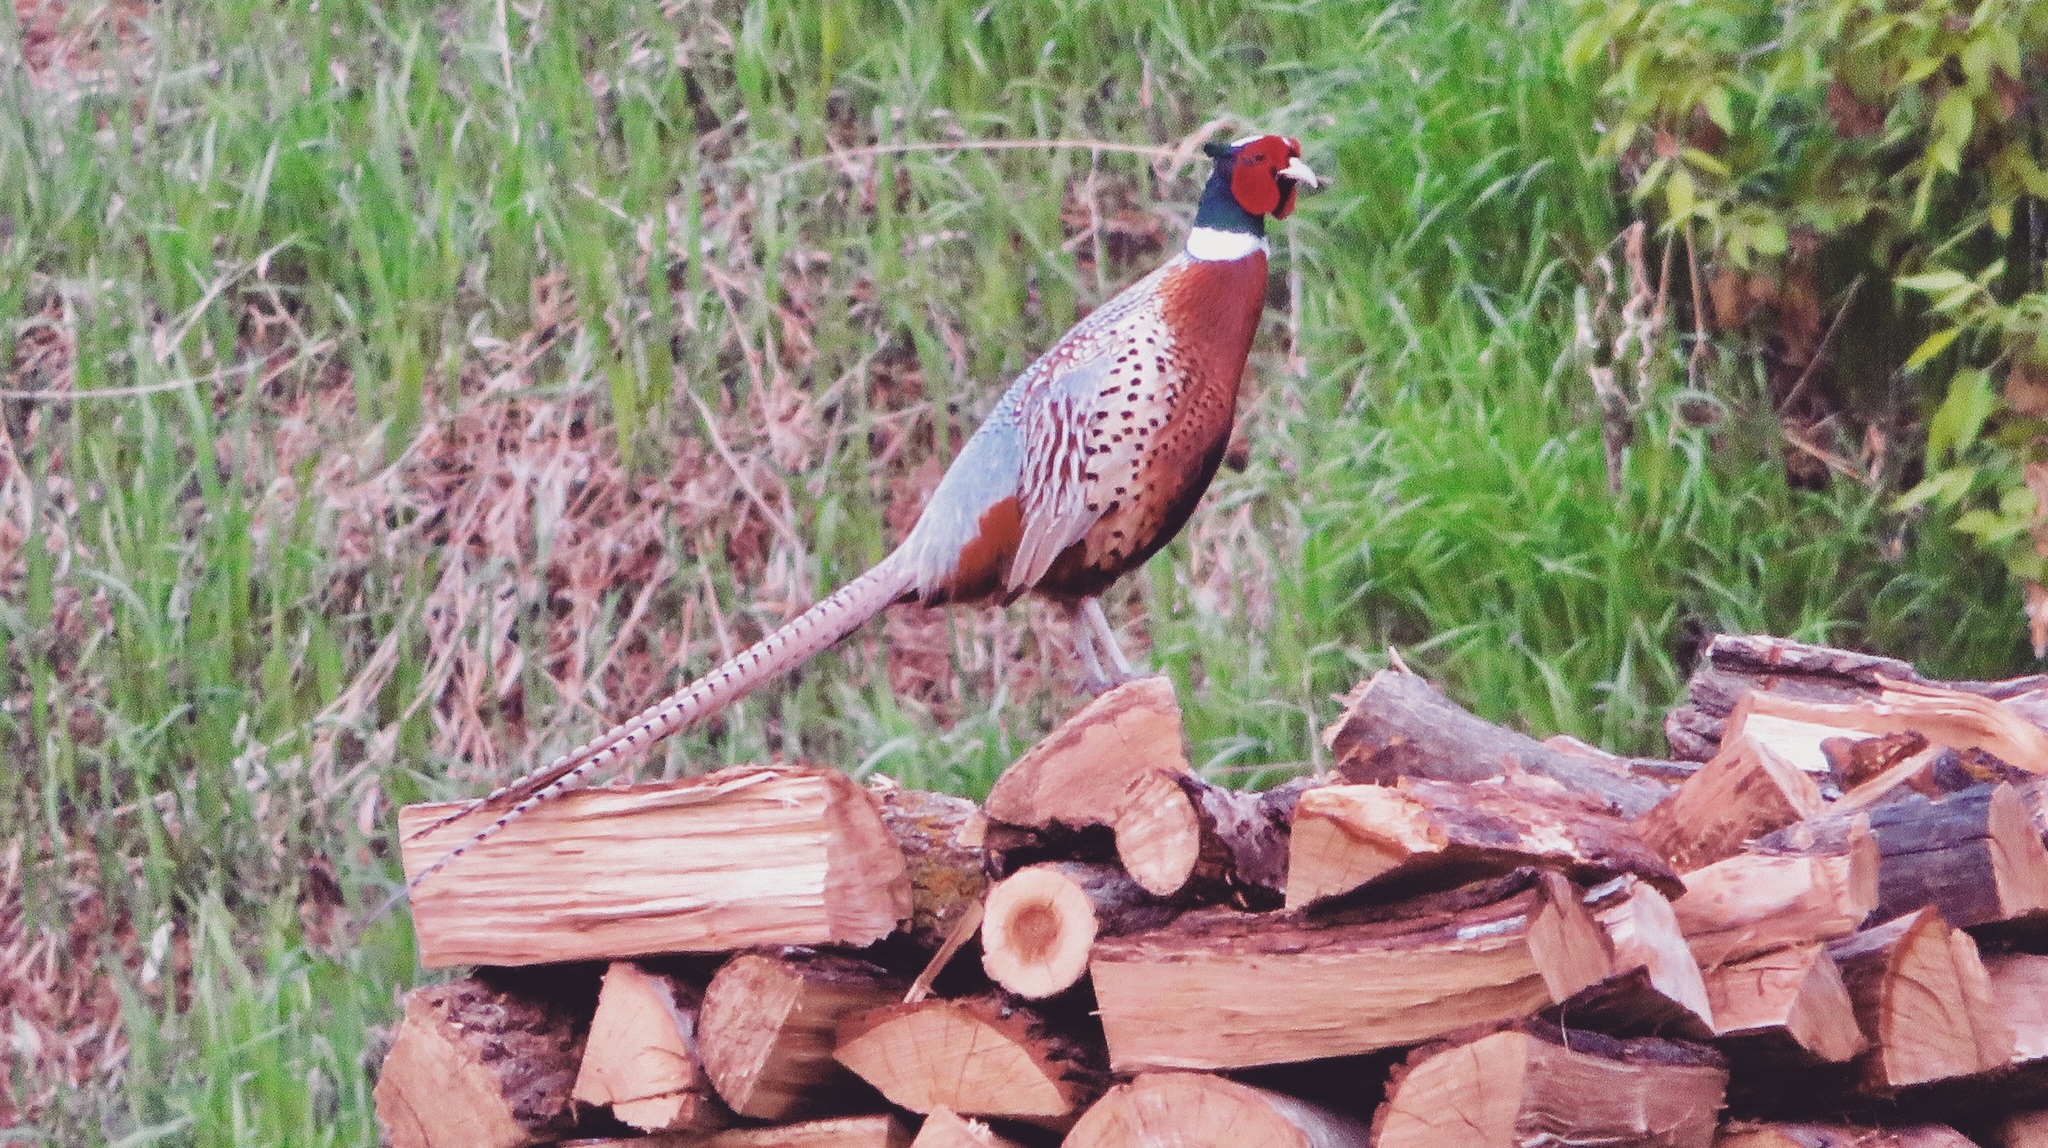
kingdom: Animalia
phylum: Chordata
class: Aves
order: Galliformes
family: Phasianidae
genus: Phasianus
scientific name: Phasianus colchicus
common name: Common pheasant
